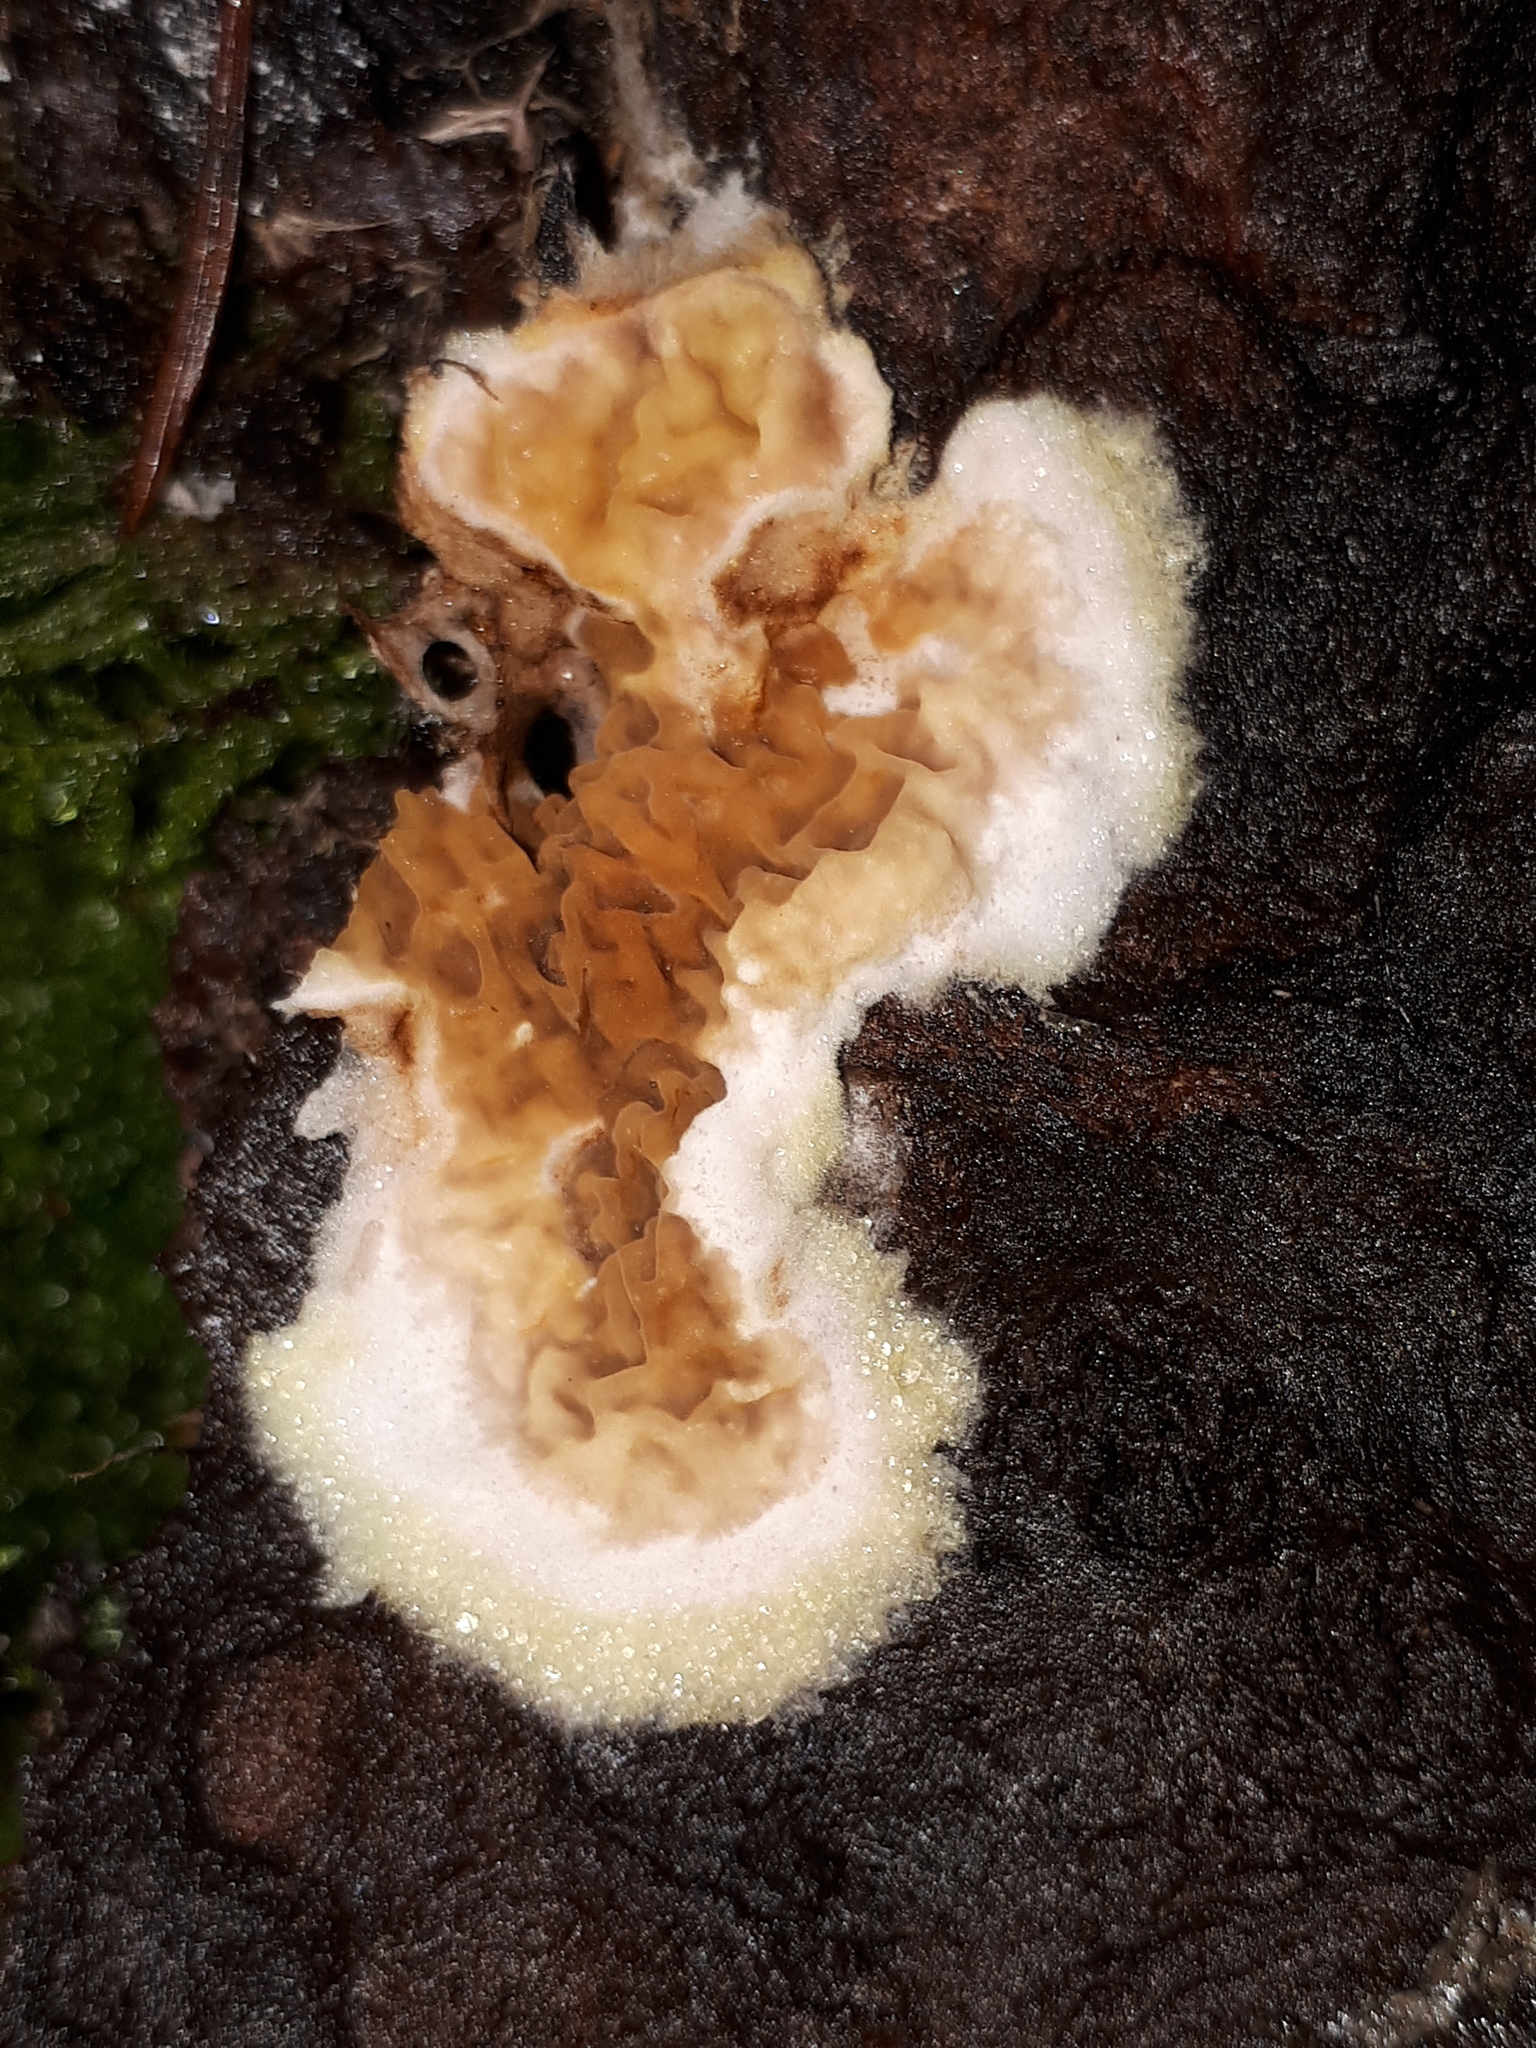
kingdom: Fungi
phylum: Basidiomycota
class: Agaricomycetes
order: Boletales
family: Serpulaceae
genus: Serpula
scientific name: Serpula himantioides
